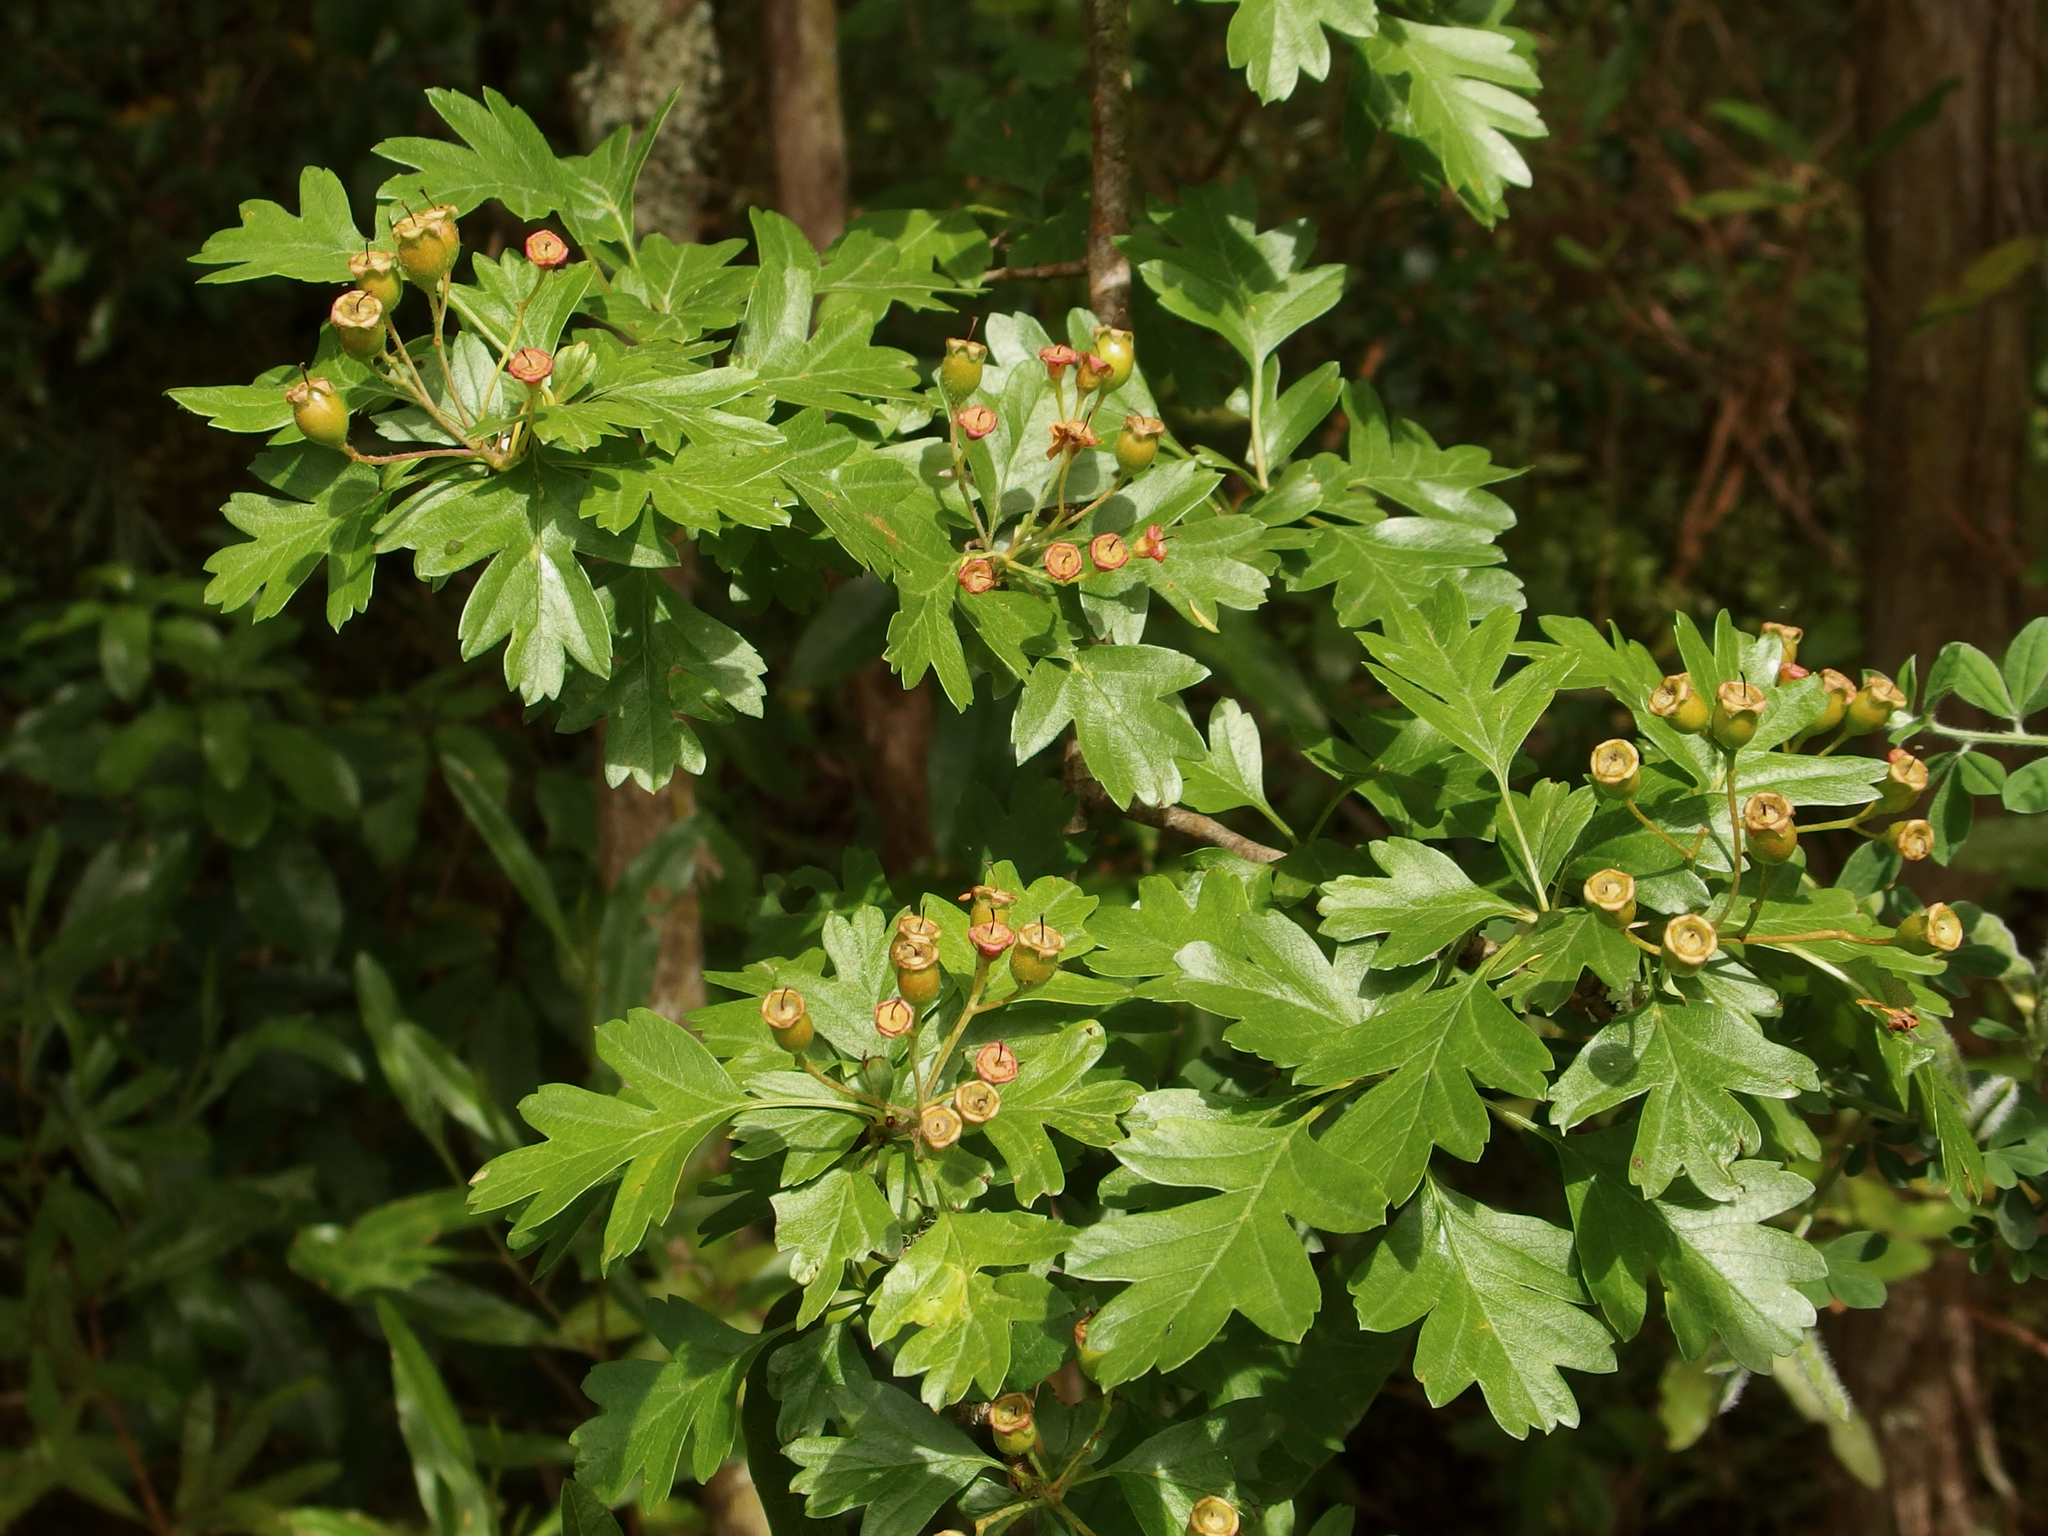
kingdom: Plantae
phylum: Tracheophyta
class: Magnoliopsida
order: Rosales
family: Rosaceae
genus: Crataegus
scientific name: Crataegus monogyna
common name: Hawthorn
